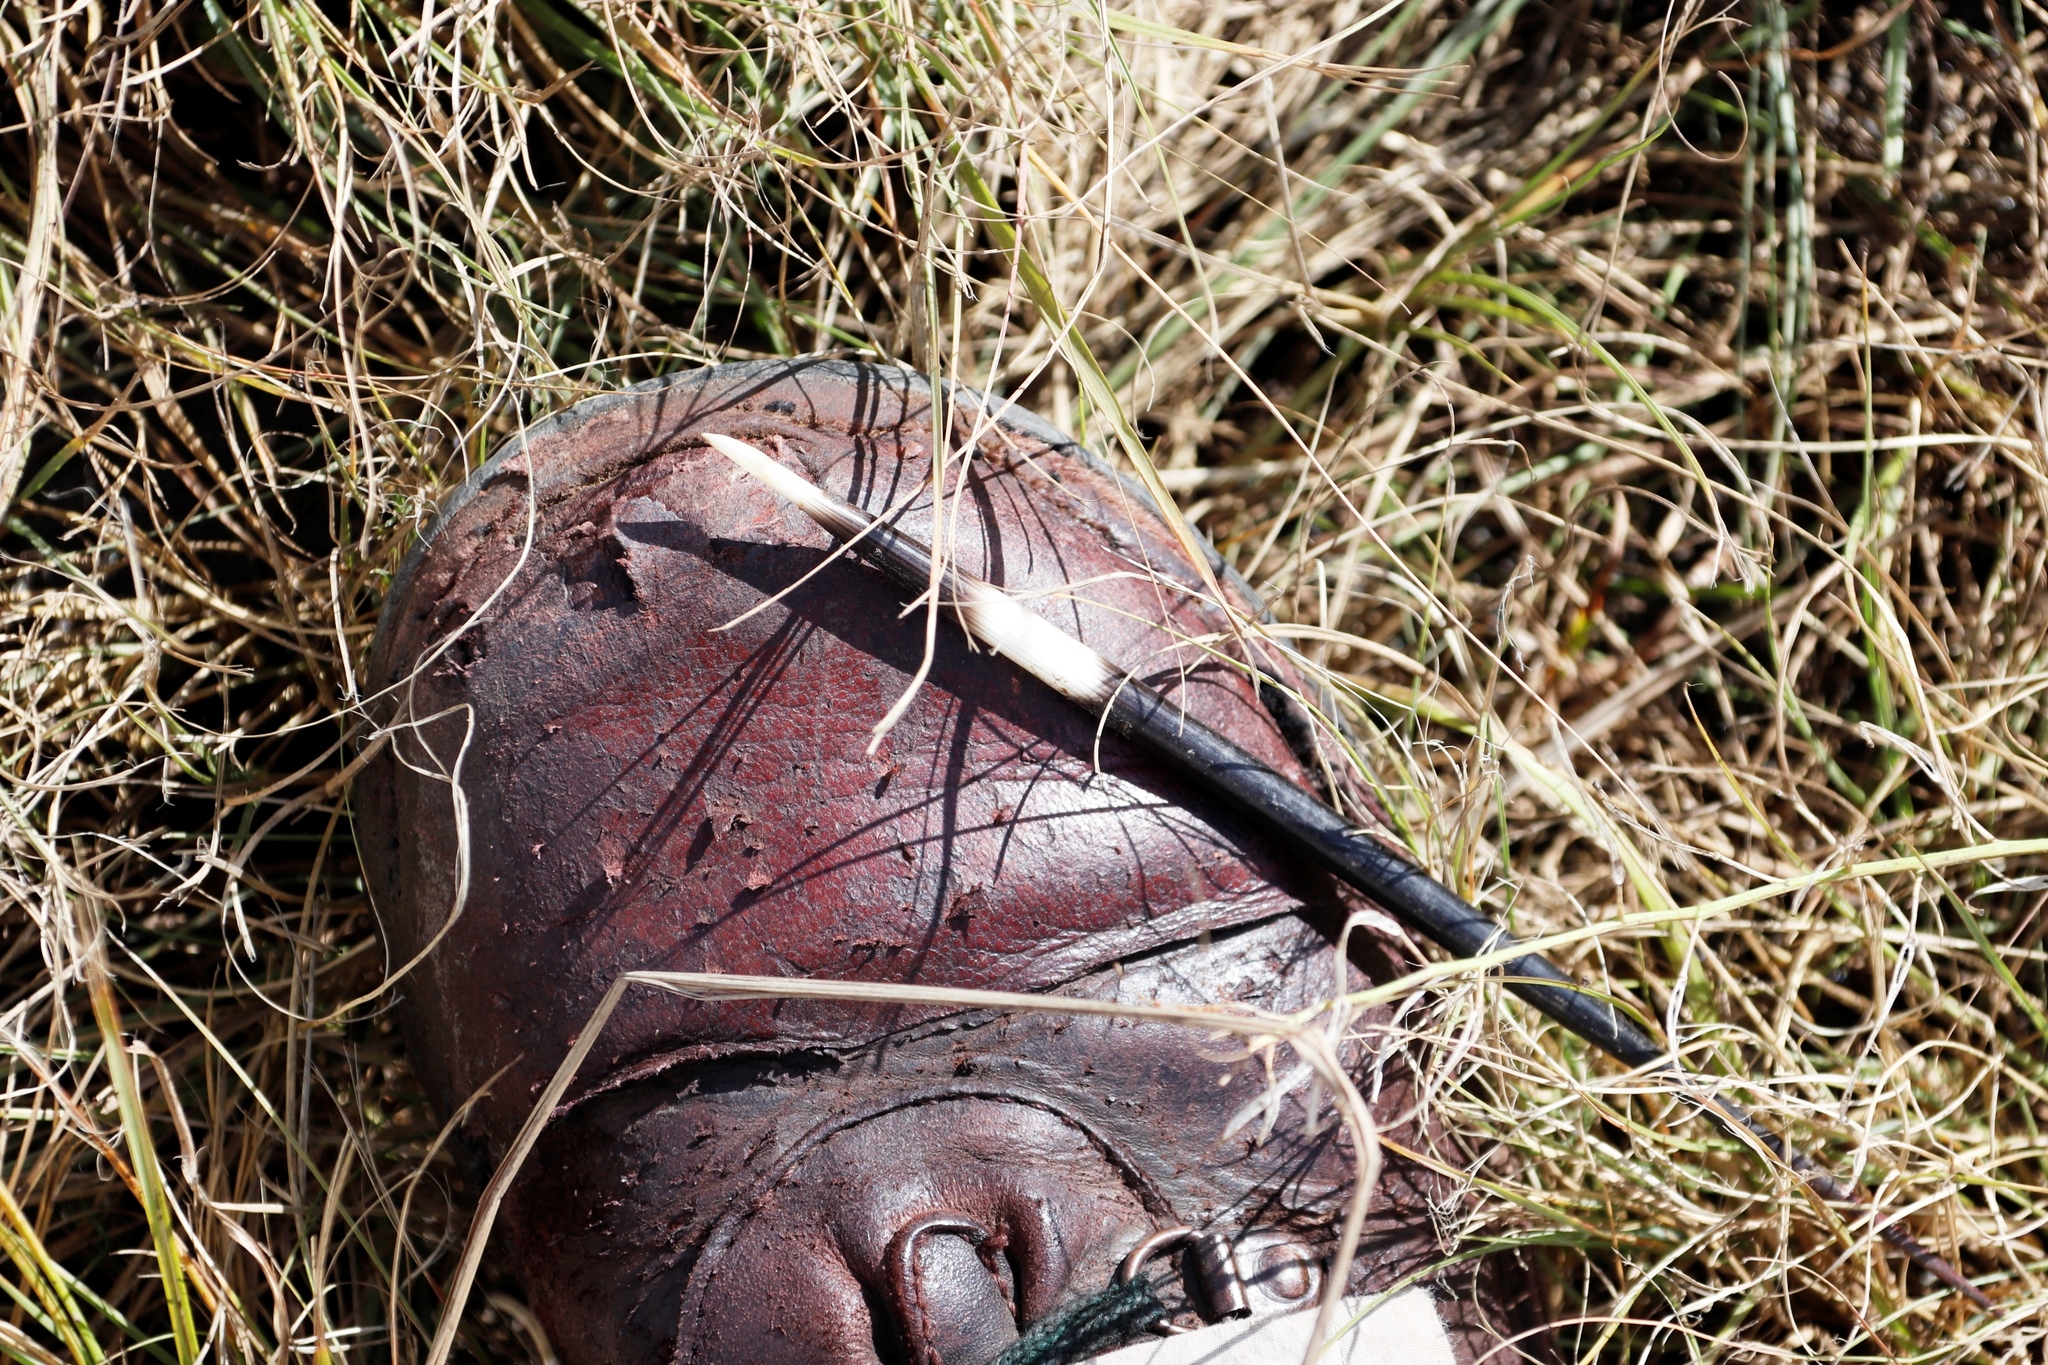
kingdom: Animalia
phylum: Chordata
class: Mammalia
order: Rodentia
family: Hystricidae
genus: Hystrix
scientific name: Hystrix africaeaustralis
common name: Cape porcupine
